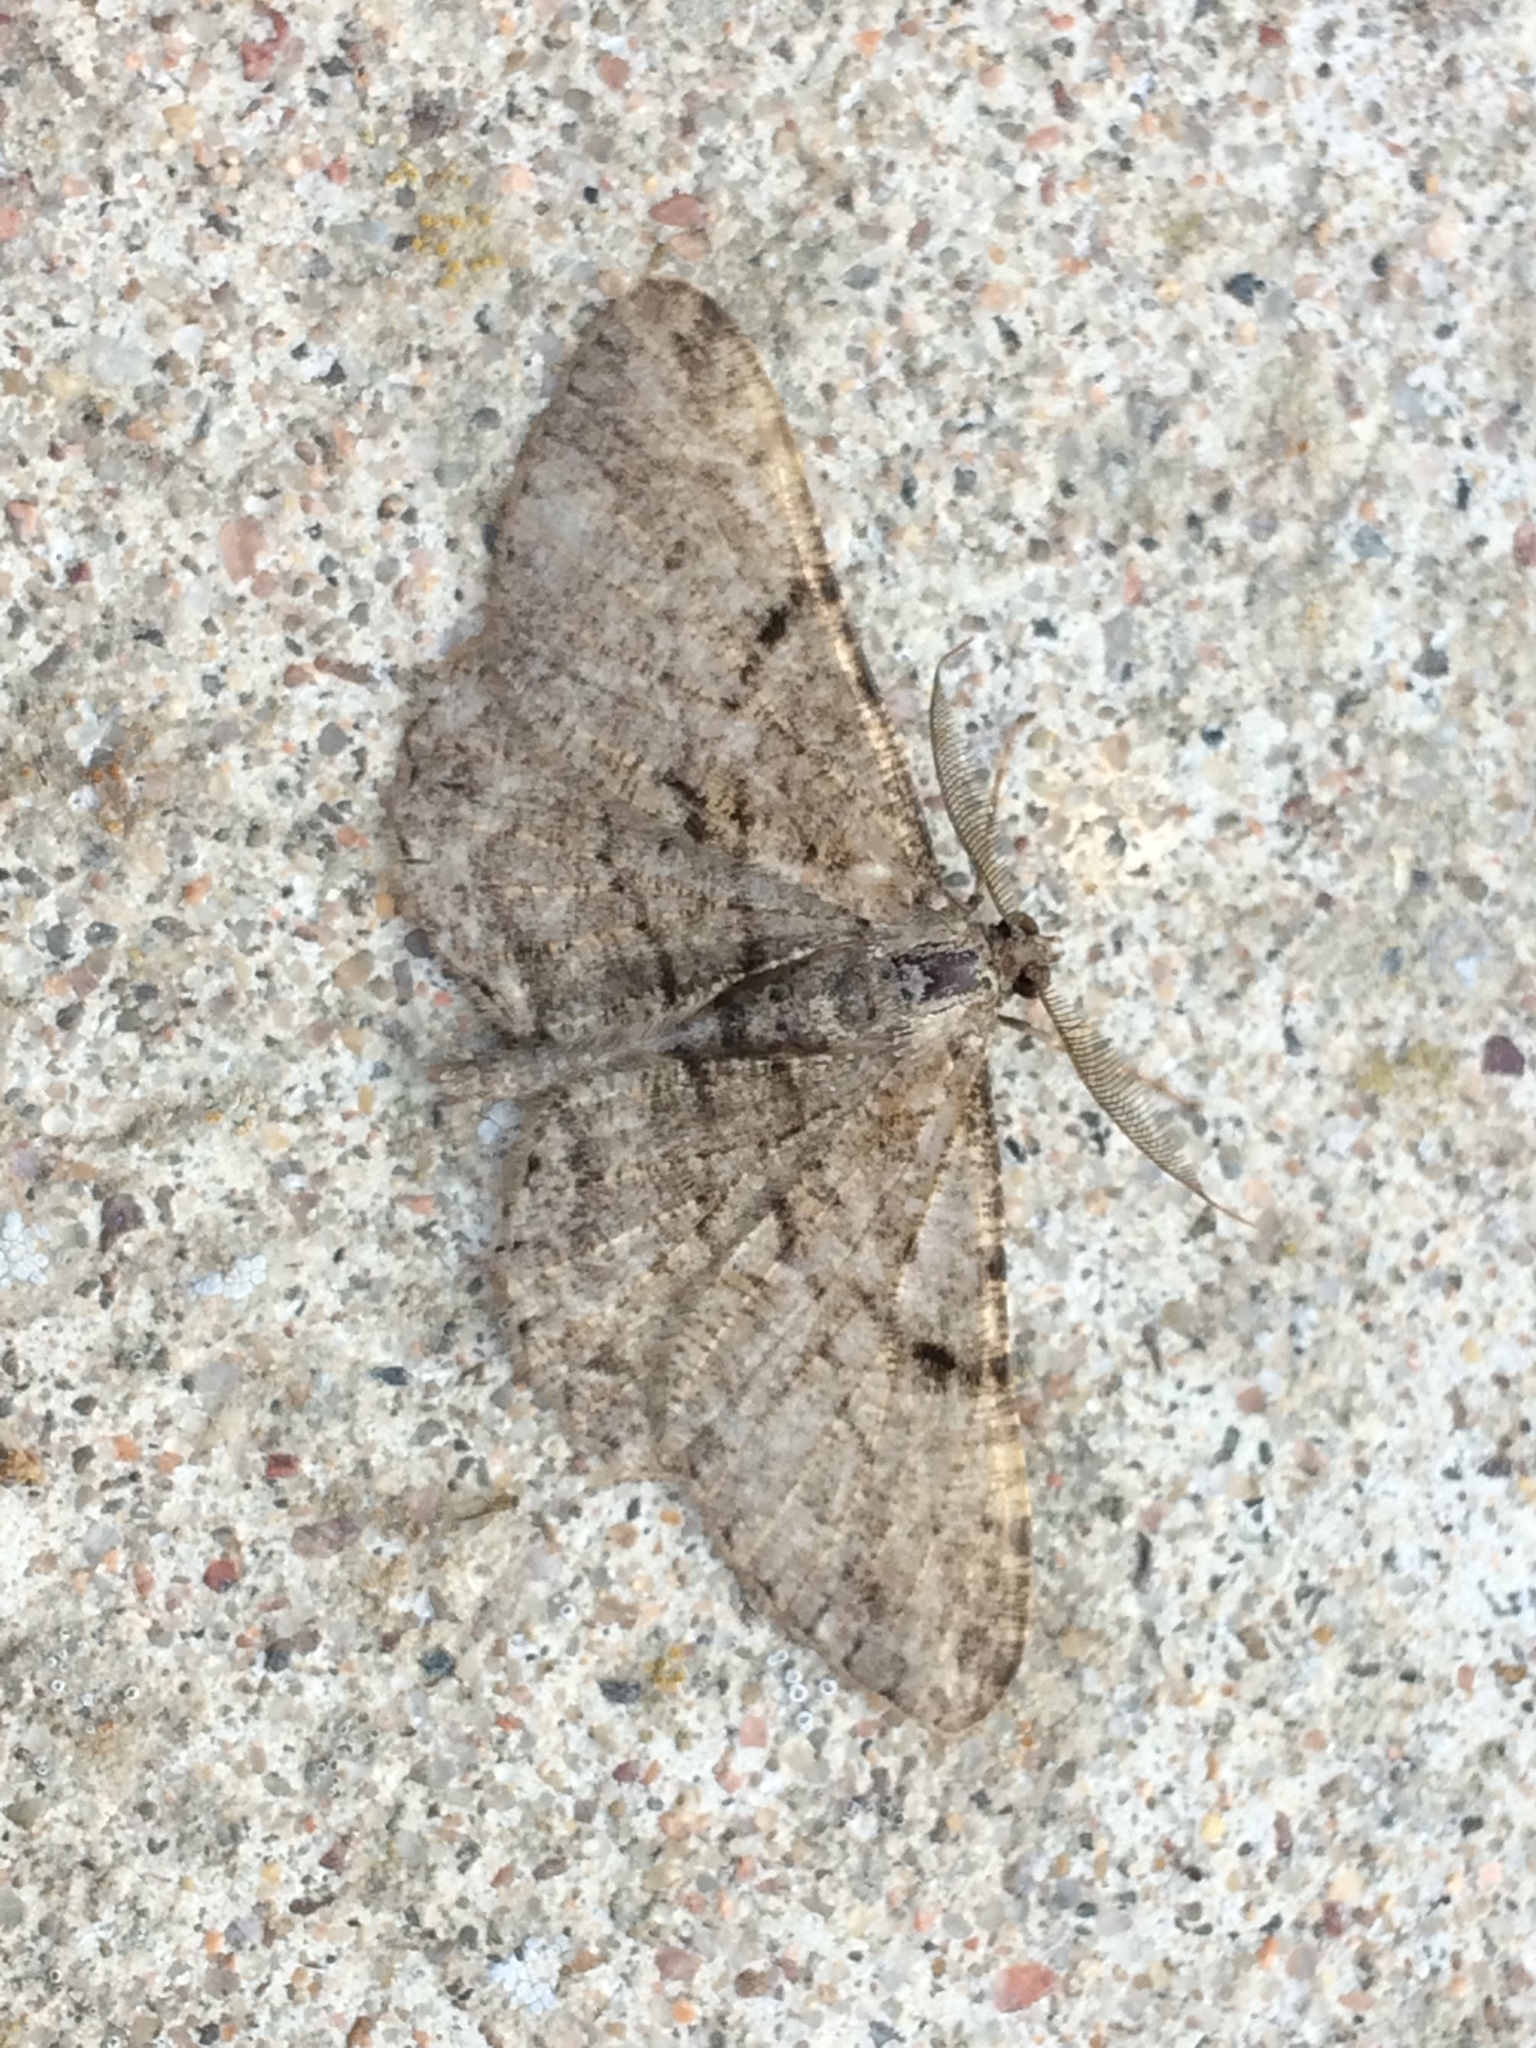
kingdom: Animalia
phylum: Arthropoda
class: Insecta
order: Lepidoptera
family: Geometridae
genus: Peribatodes
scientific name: Peribatodes rhomboidaria
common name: Willow beauty
